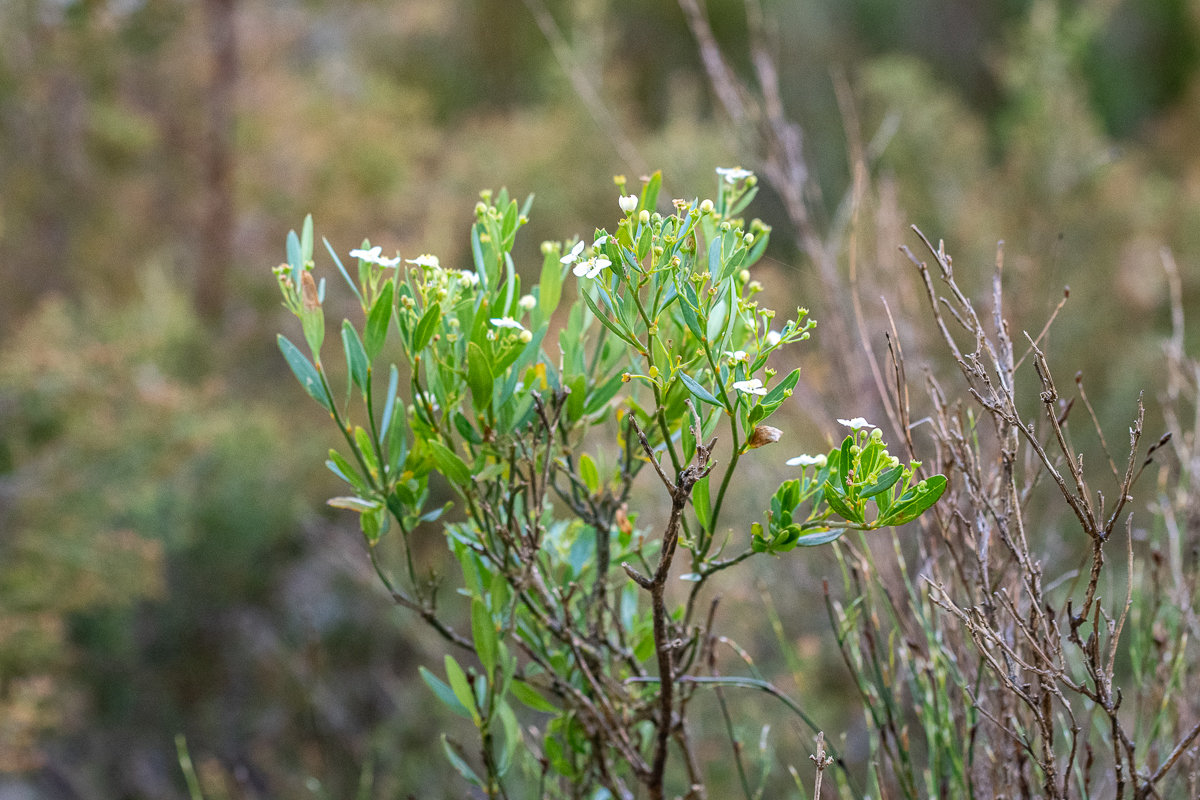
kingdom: Plantae
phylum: Tracheophyta
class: Magnoliopsida
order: Solanales
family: Montiniaceae
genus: Montinia
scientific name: Montinia caryophyllacea
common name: Wild clove-bush
